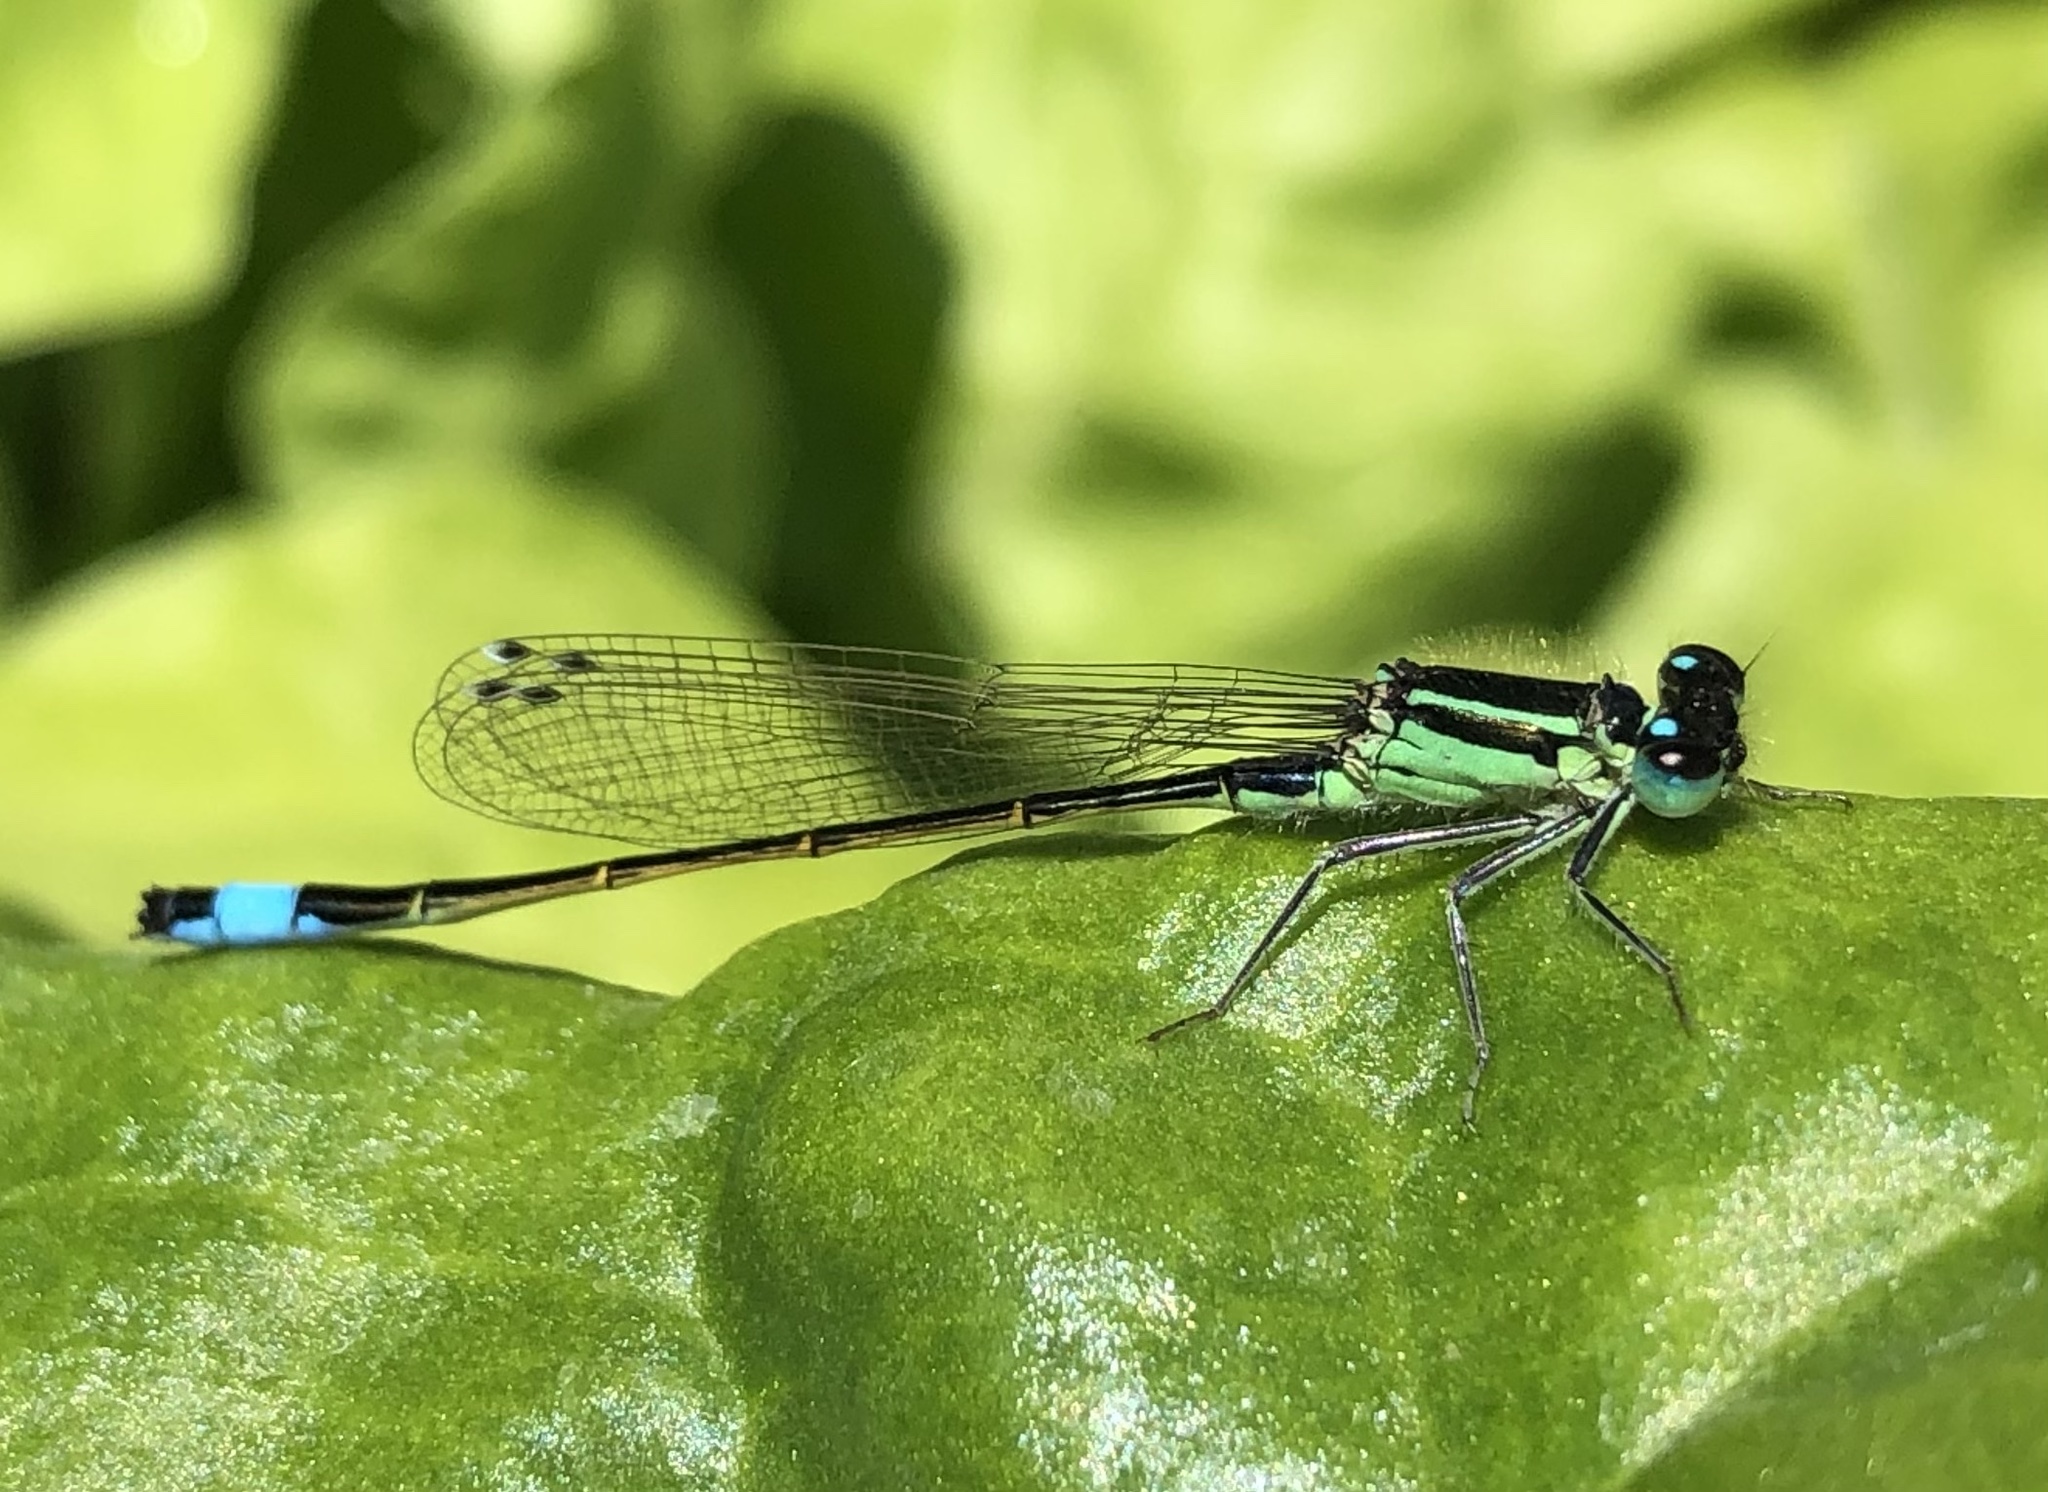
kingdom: Animalia
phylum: Arthropoda
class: Insecta
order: Odonata
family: Coenagrionidae
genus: Ischnura
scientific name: Ischnura elegans
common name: Blue-tailed damselfly
